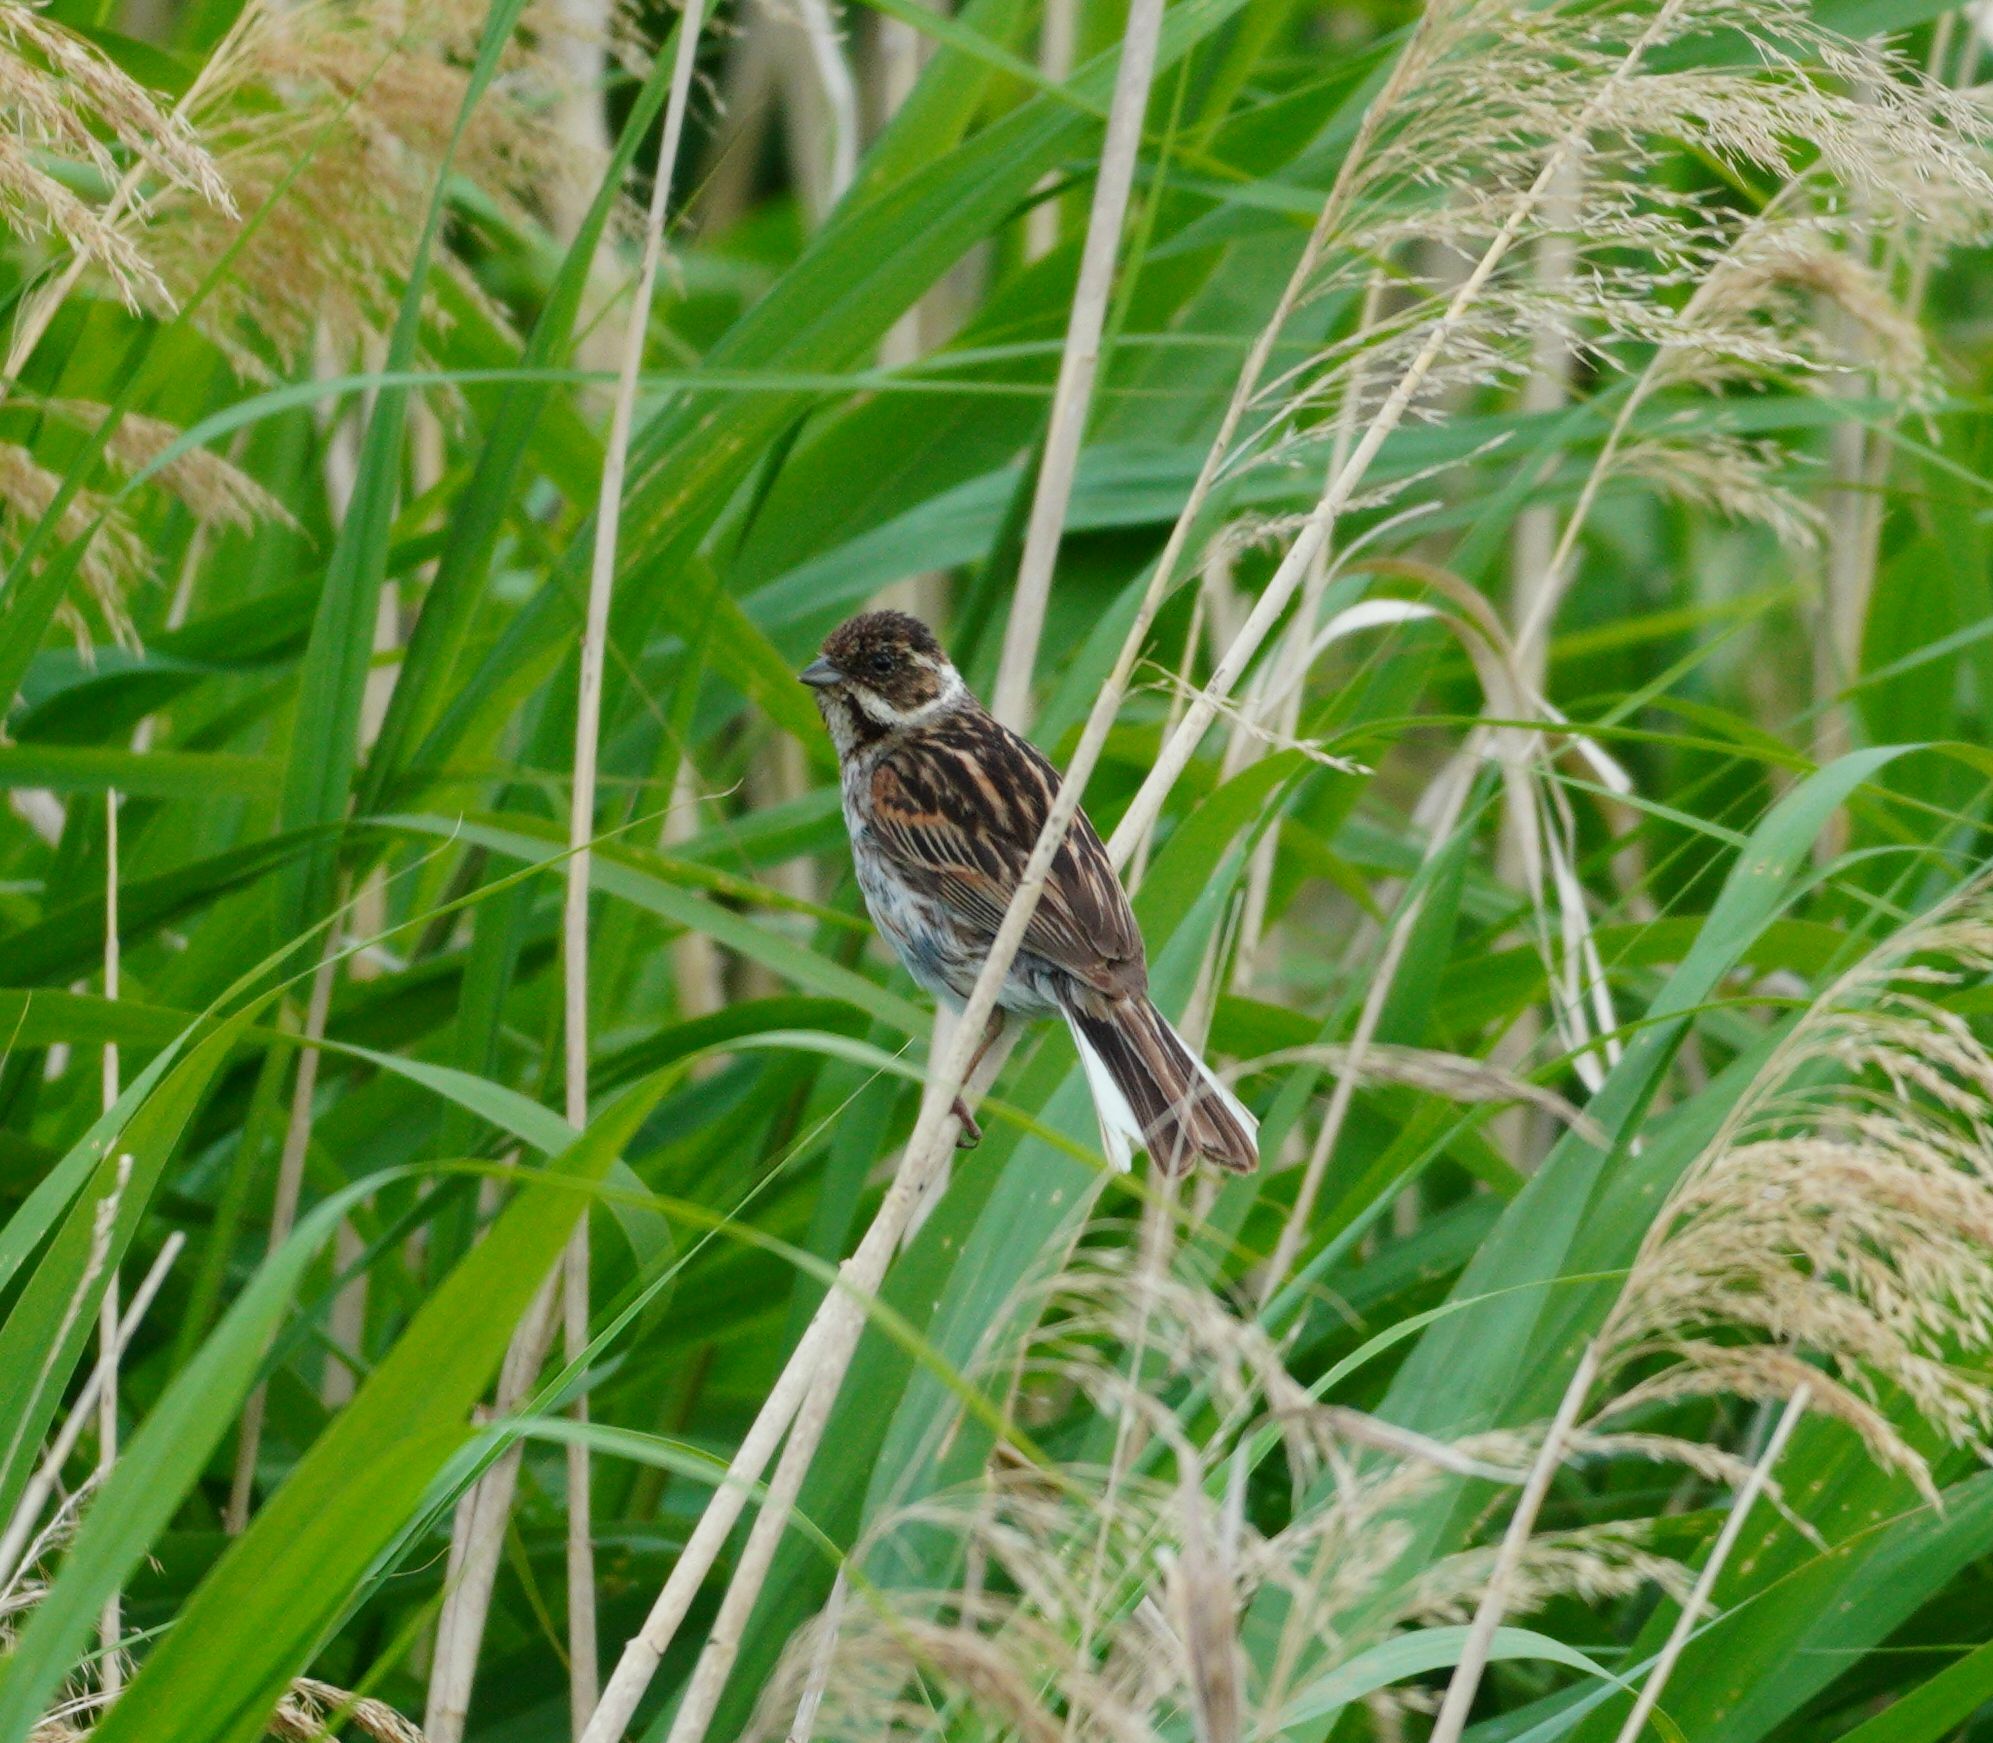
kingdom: Animalia
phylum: Chordata
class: Aves
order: Passeriformes
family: Emberizidae
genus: Emberiza
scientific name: Emberiza schoeniclus
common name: Reed bunting
